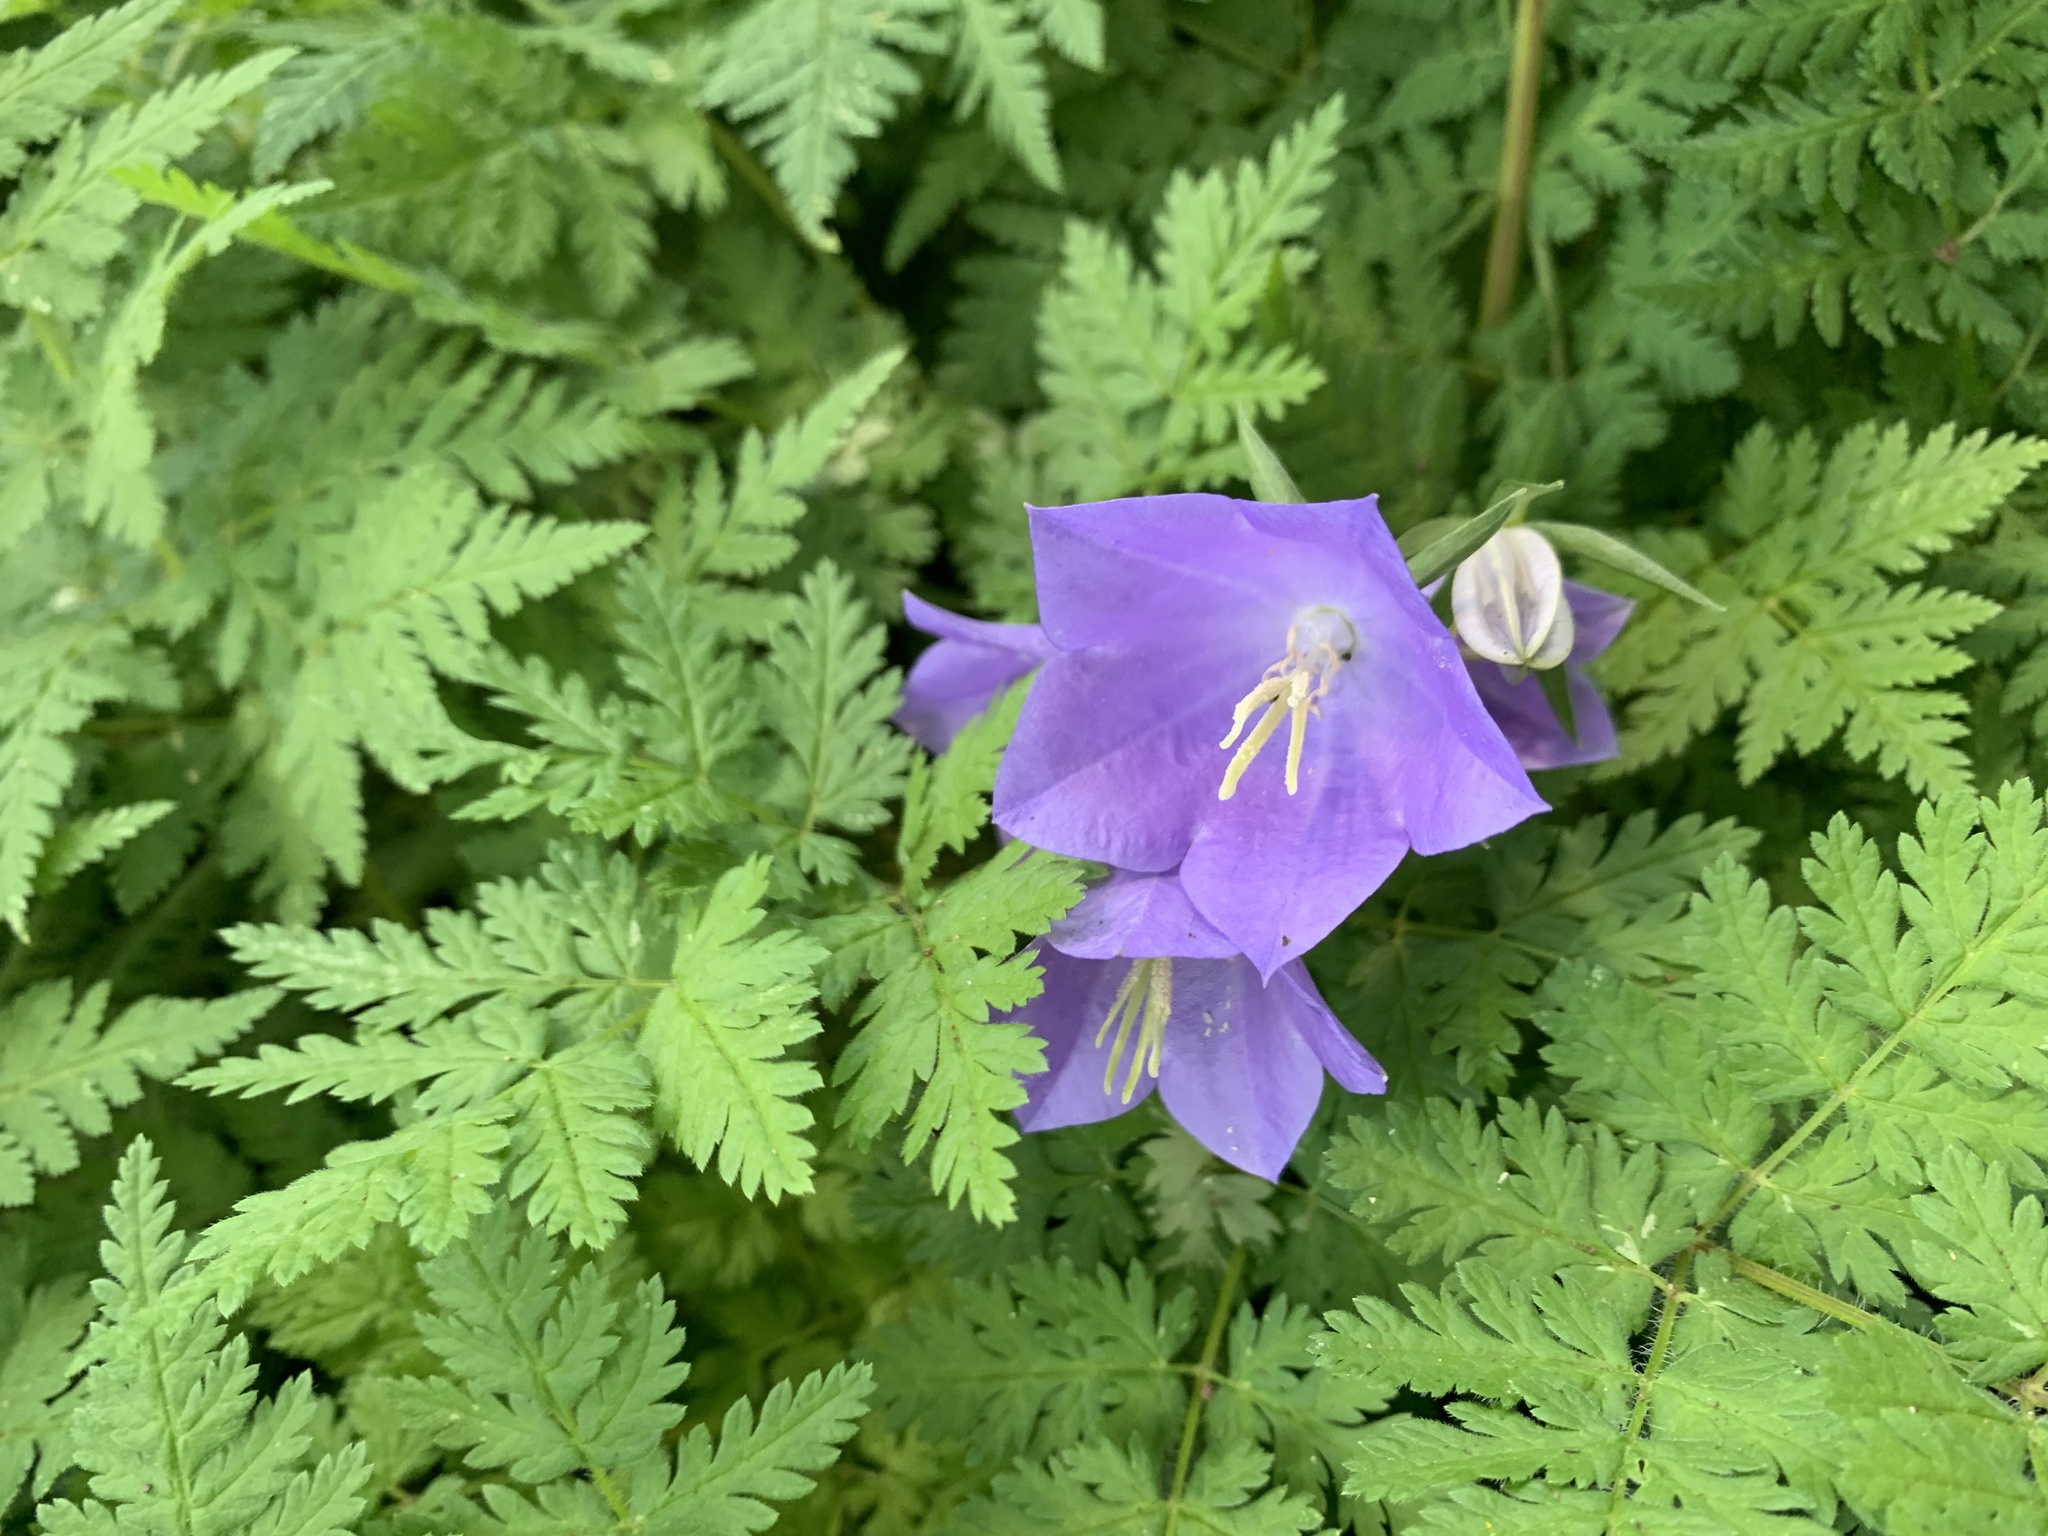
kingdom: Plantae
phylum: Tracheophyta
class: Magnoliopsida
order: Asterales
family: Campanulaceae
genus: Campanula
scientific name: Campanula persicifolia
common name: Peach-leaved bellflower
